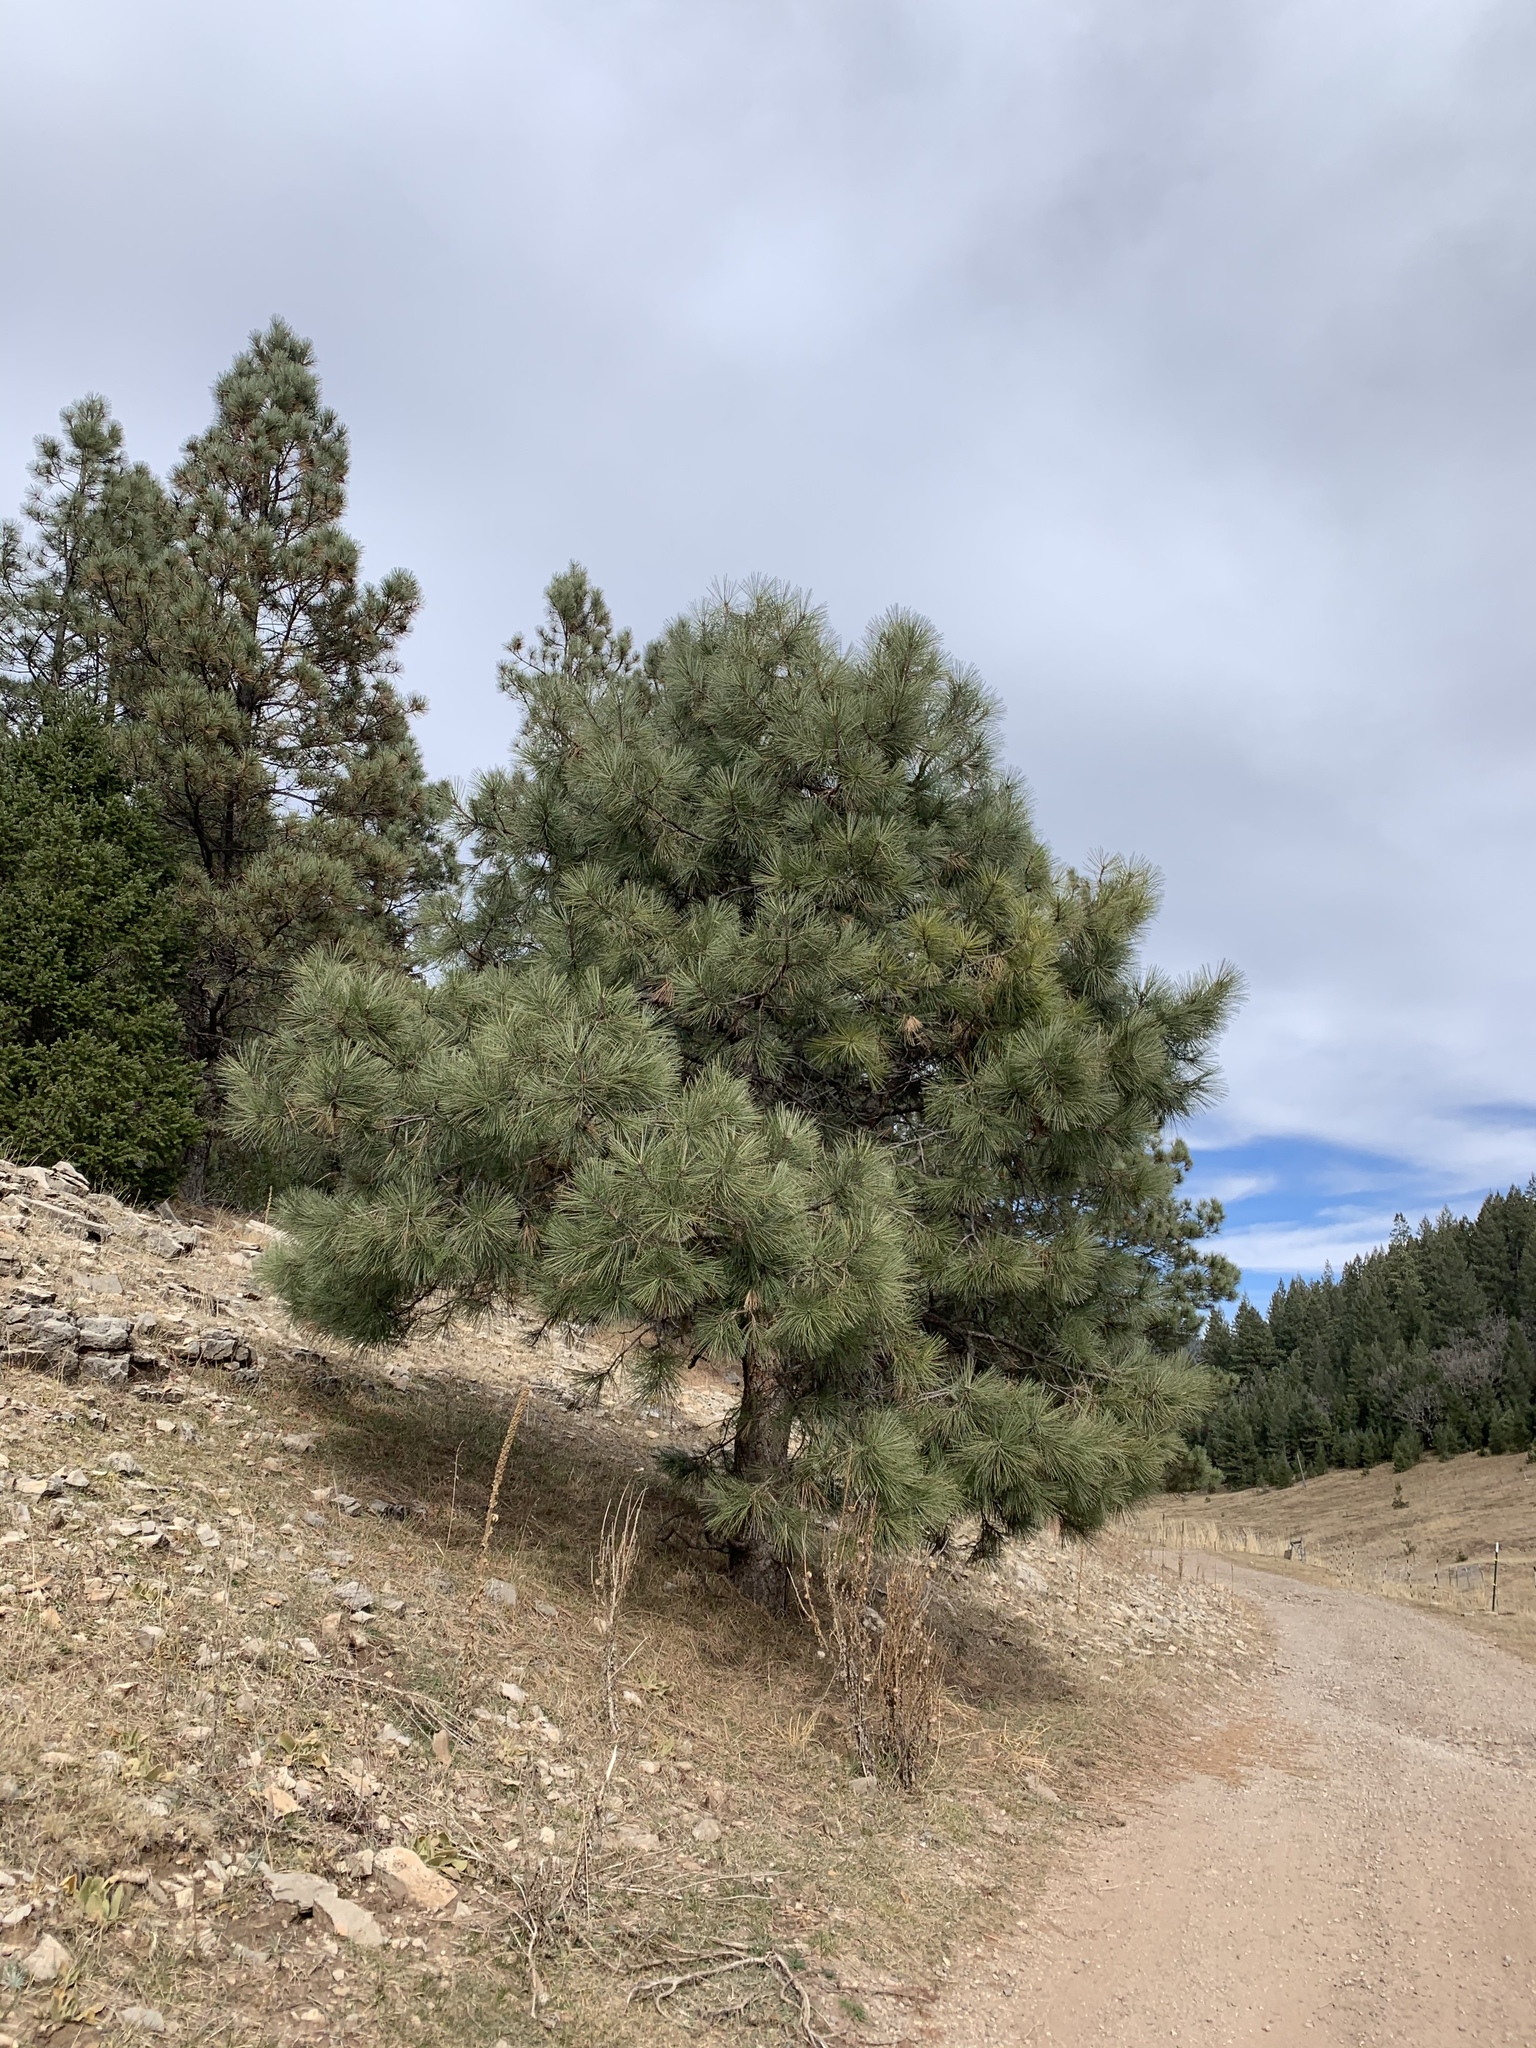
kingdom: Plantae
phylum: Tracheophyta
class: Pinopsida
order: Pinales
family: Pinaceae
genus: Pinus
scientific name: Pinus ponderosa
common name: Western yellow-pine
